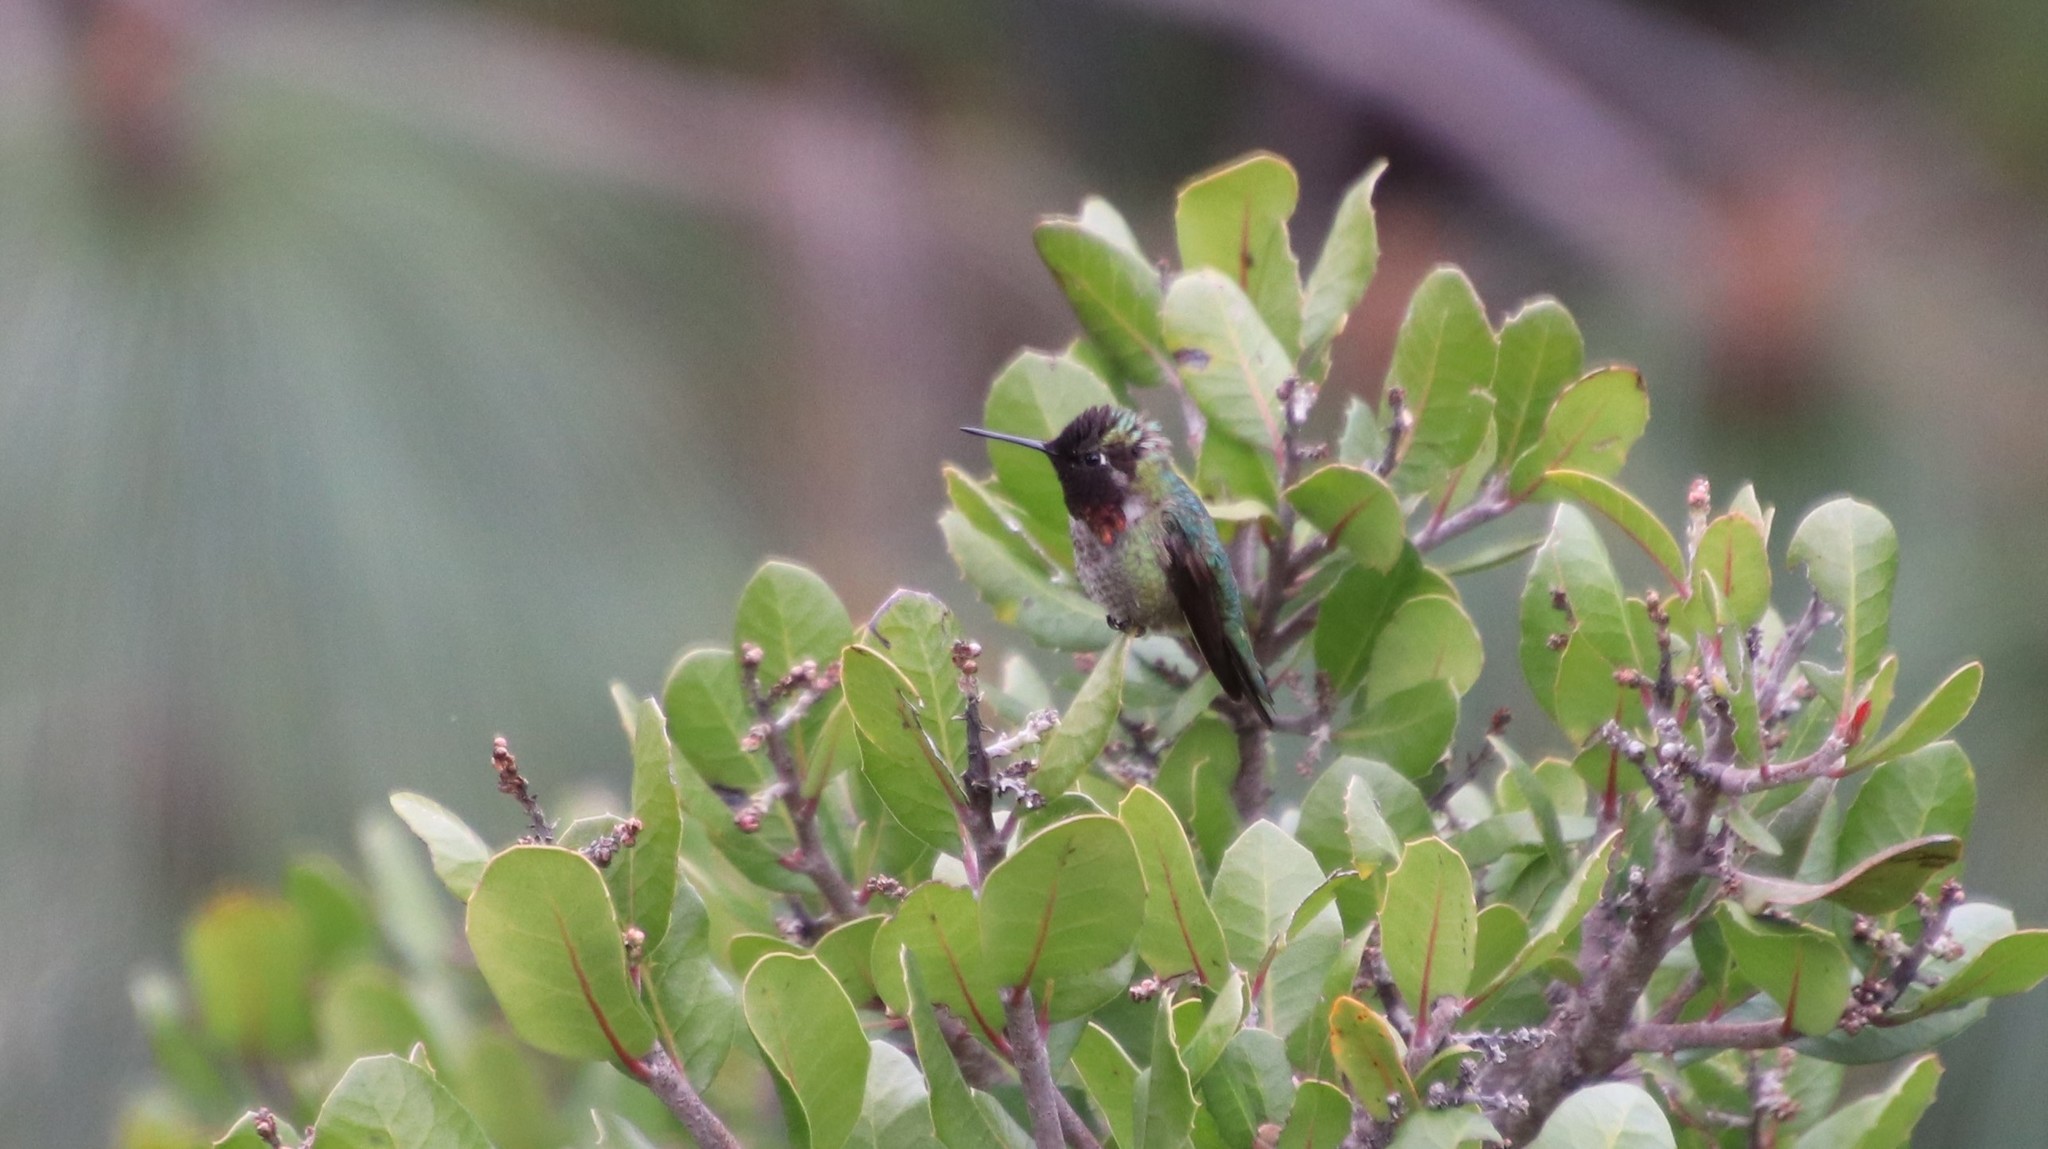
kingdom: Animalia
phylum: Chordata
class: Aves
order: Apodiformes
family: Trochilidae
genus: Calypte
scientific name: Calypte anna
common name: Anna's hummingbird
